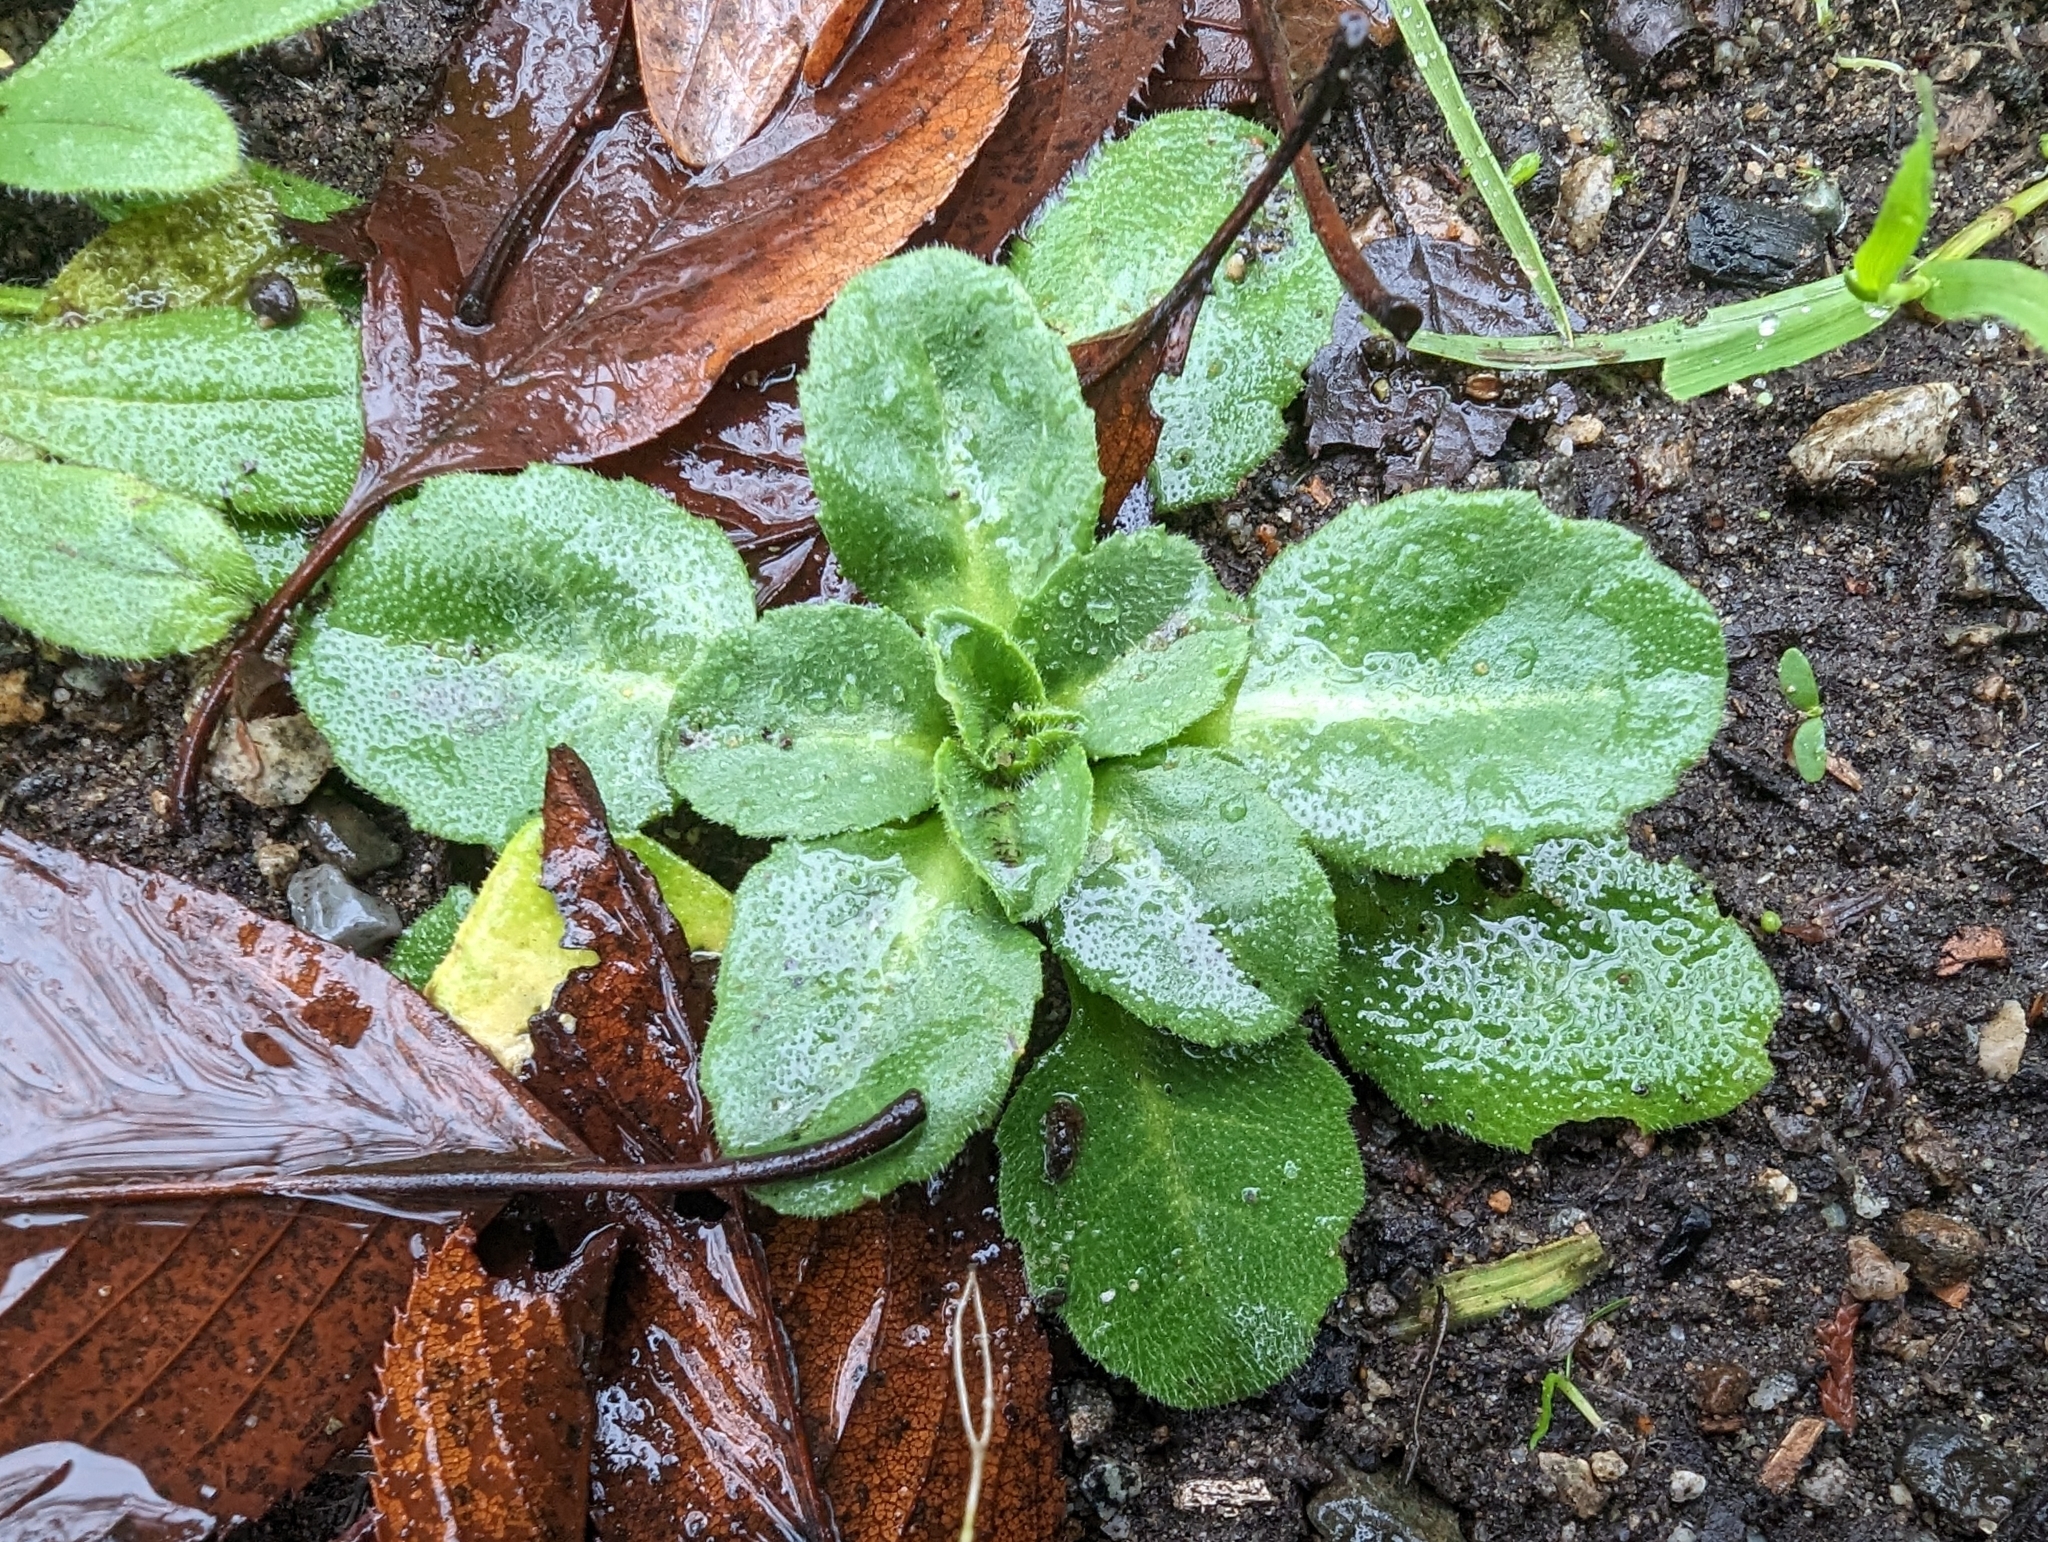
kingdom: Plantae
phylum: Tracheophyta
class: Magnoliopsida
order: Asterales
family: Asteraceae
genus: Bellis
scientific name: Bellis perennis
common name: Lawndaisy
